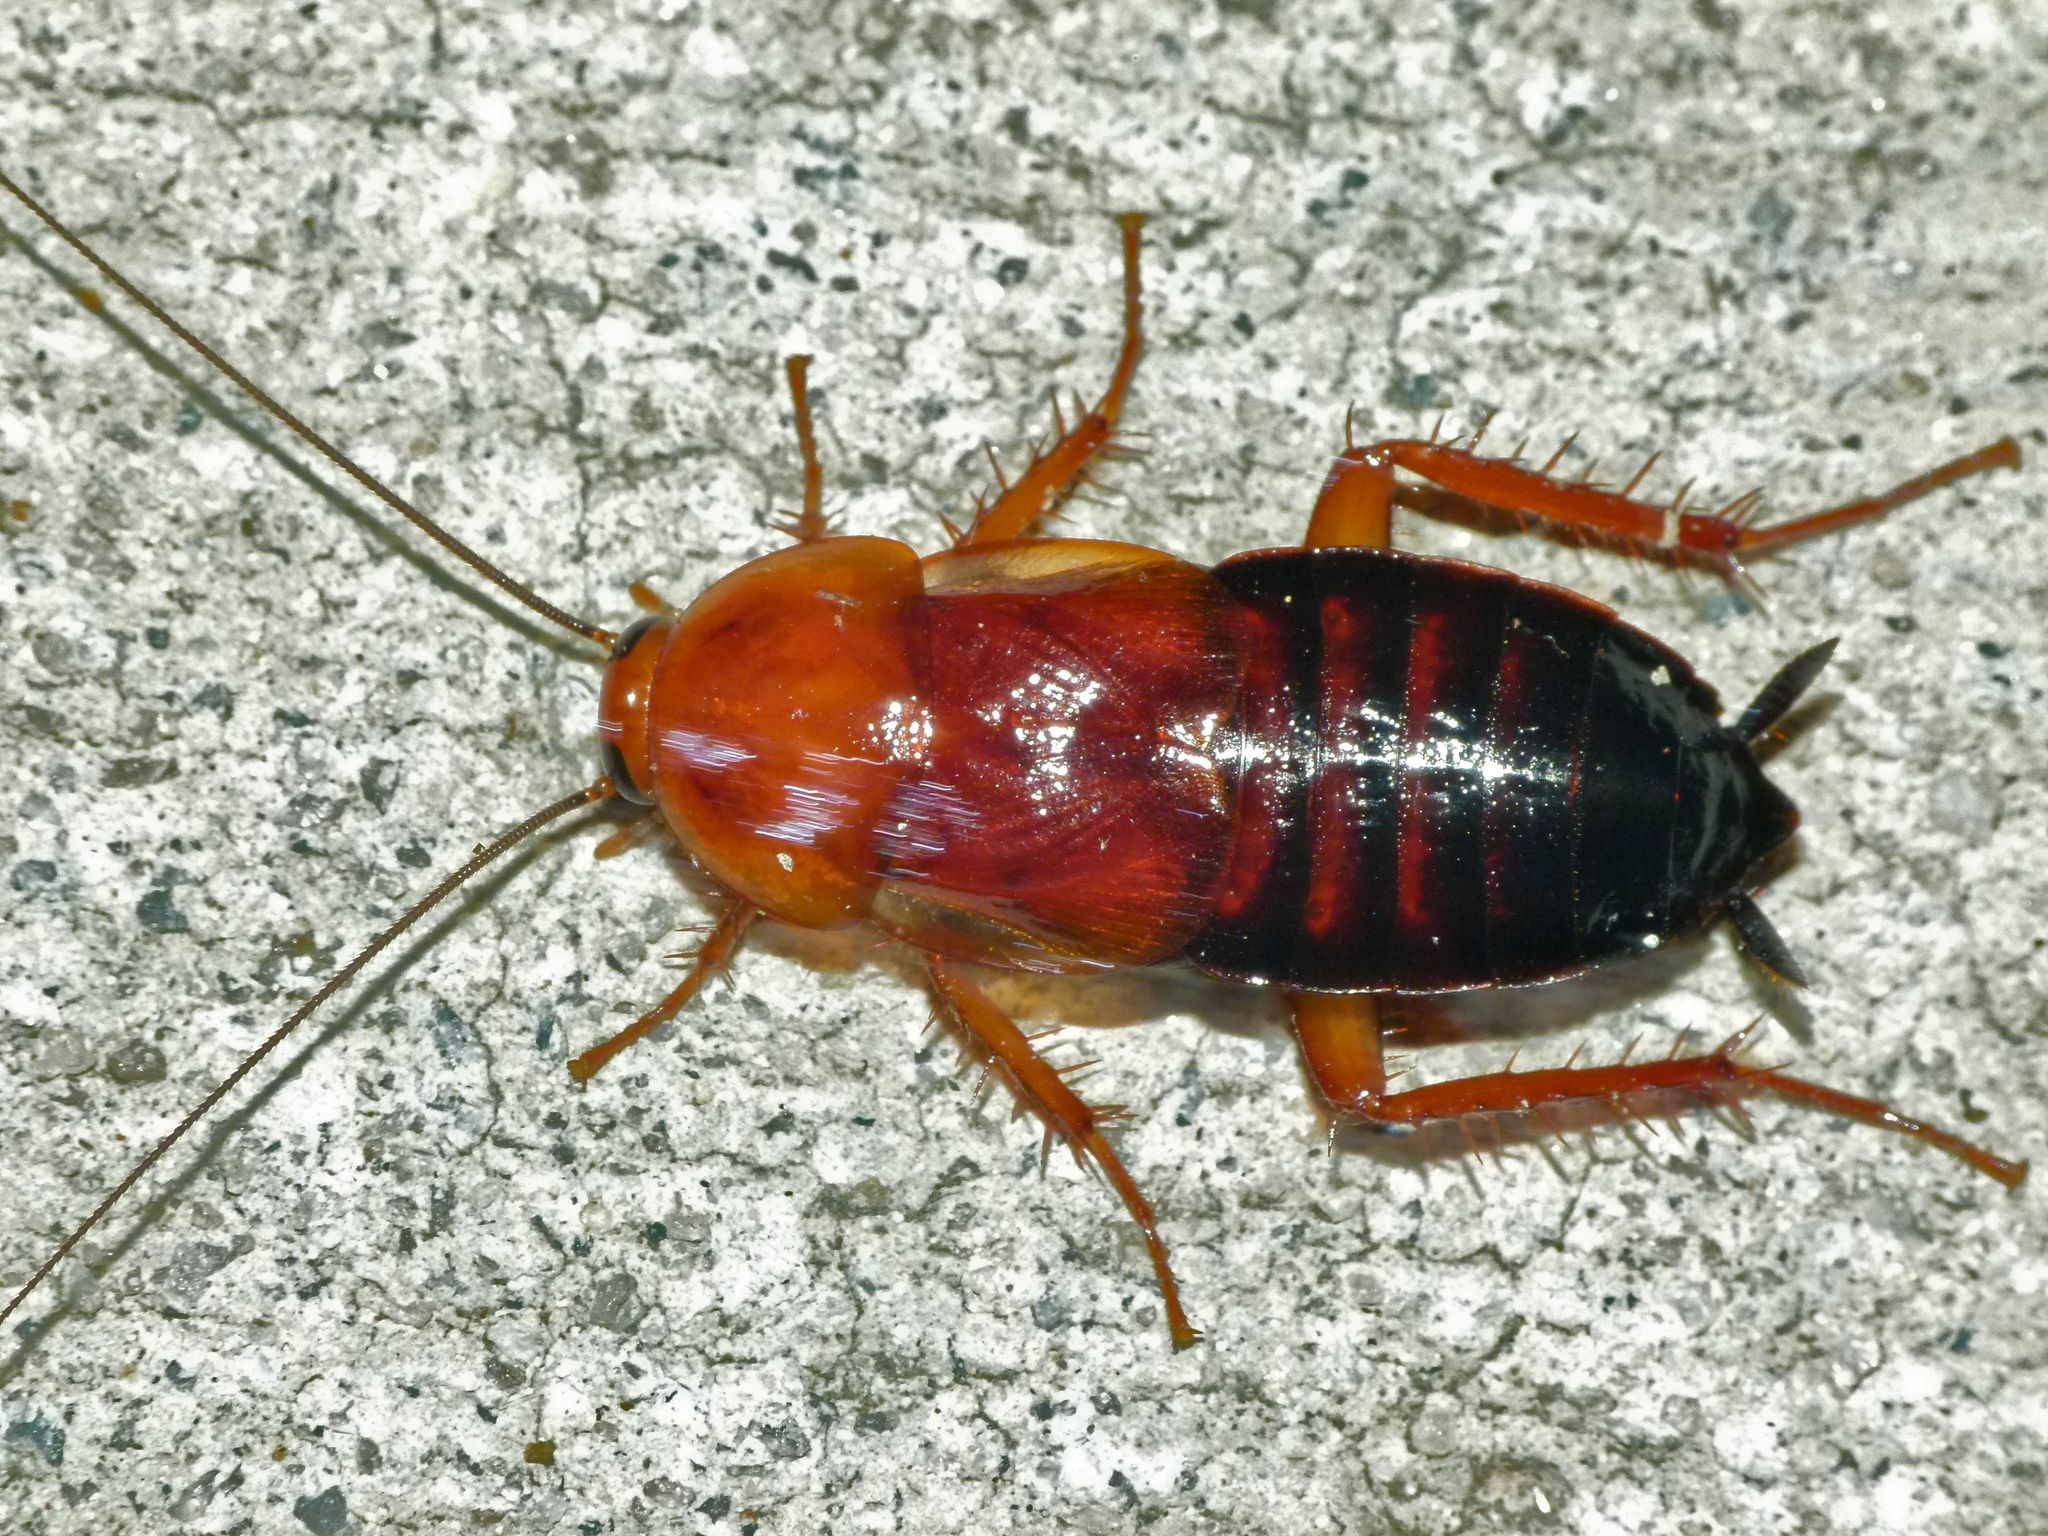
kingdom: Animalia
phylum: Arthropoda
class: Insecta
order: Blattodea
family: Ectobiidae
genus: Parcoblatta
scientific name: Parcoblatta lata
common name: Broad wood cockroach
